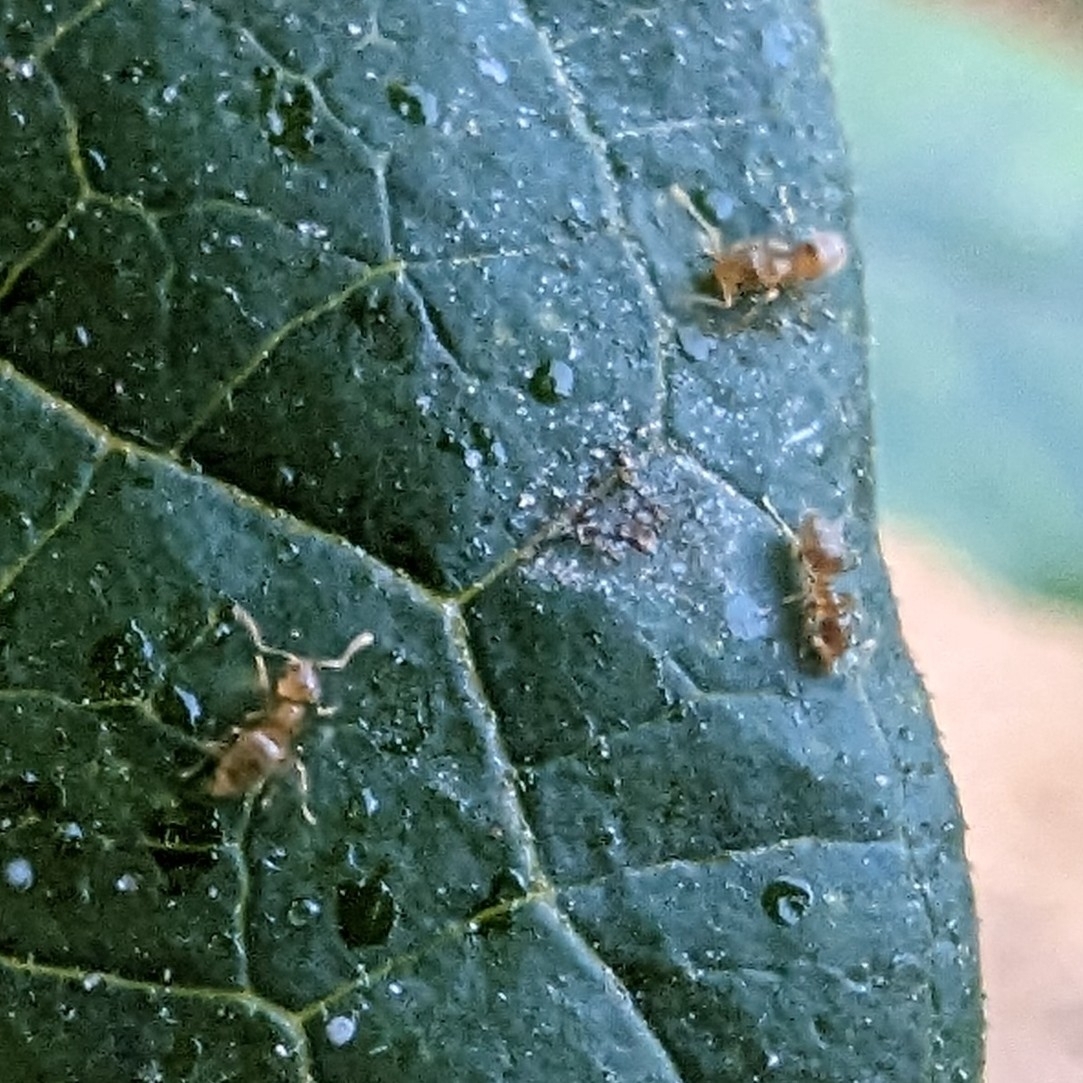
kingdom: Animalia
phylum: Arthropoda
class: Insecta
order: Hymenoptera
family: Formicidae
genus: Brachymyrmex
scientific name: Brachymyrmex depilis
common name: Hairless rover ant
